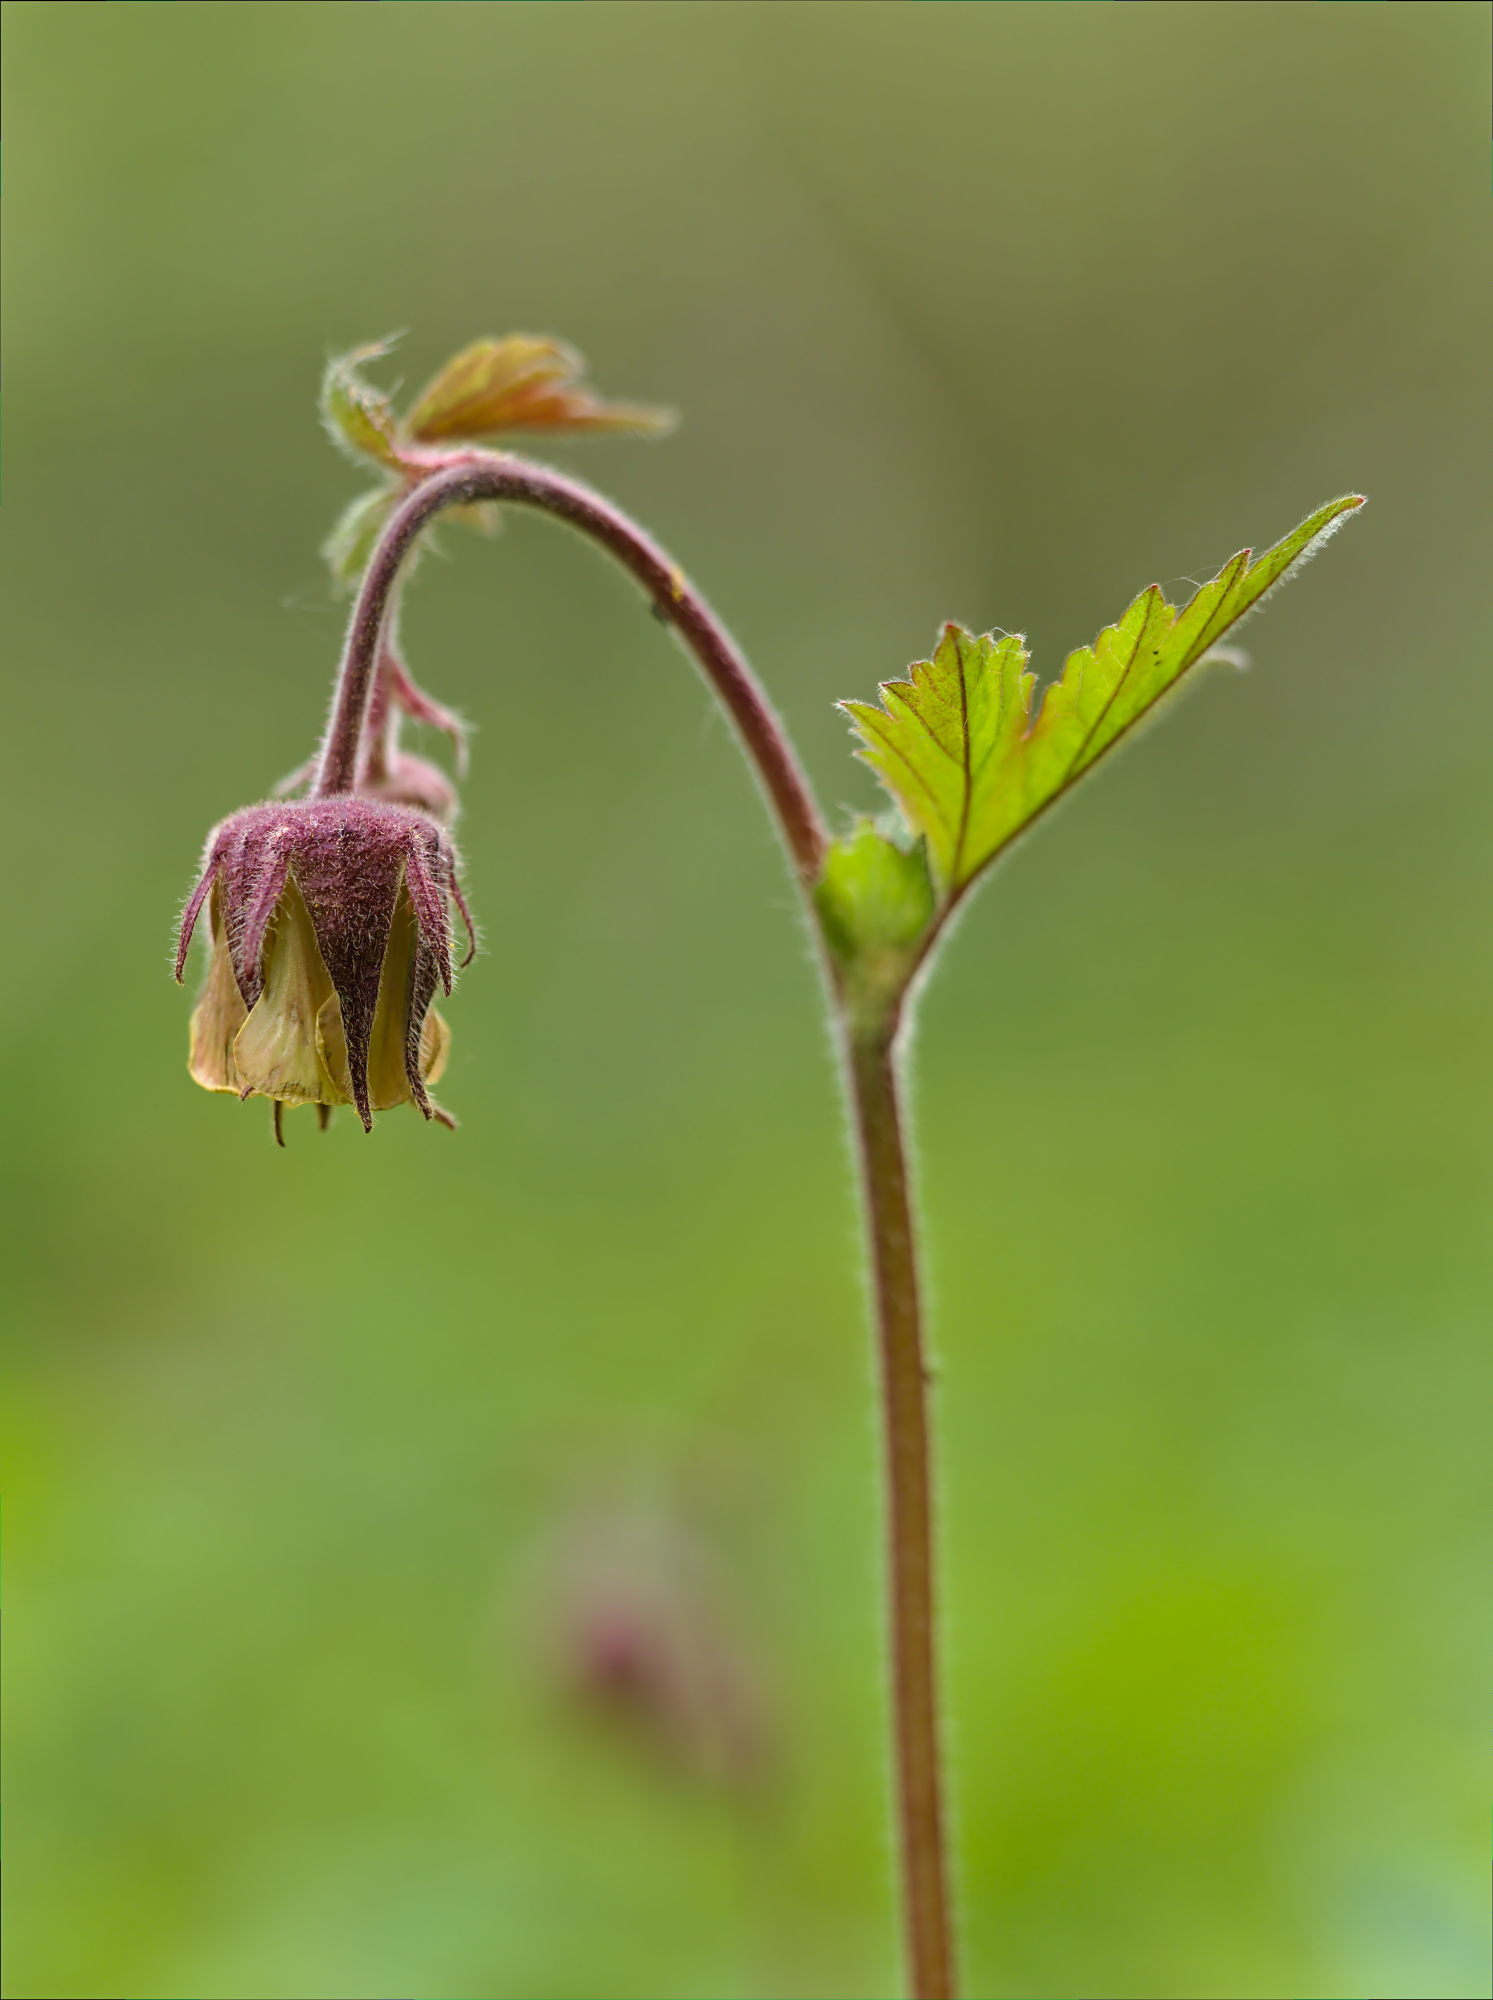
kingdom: Plantae
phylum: Tracheophyta
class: Magnoliopsida
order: Rosales
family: Rosaceae
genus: Geum
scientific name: Geum rivale
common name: Water avens
